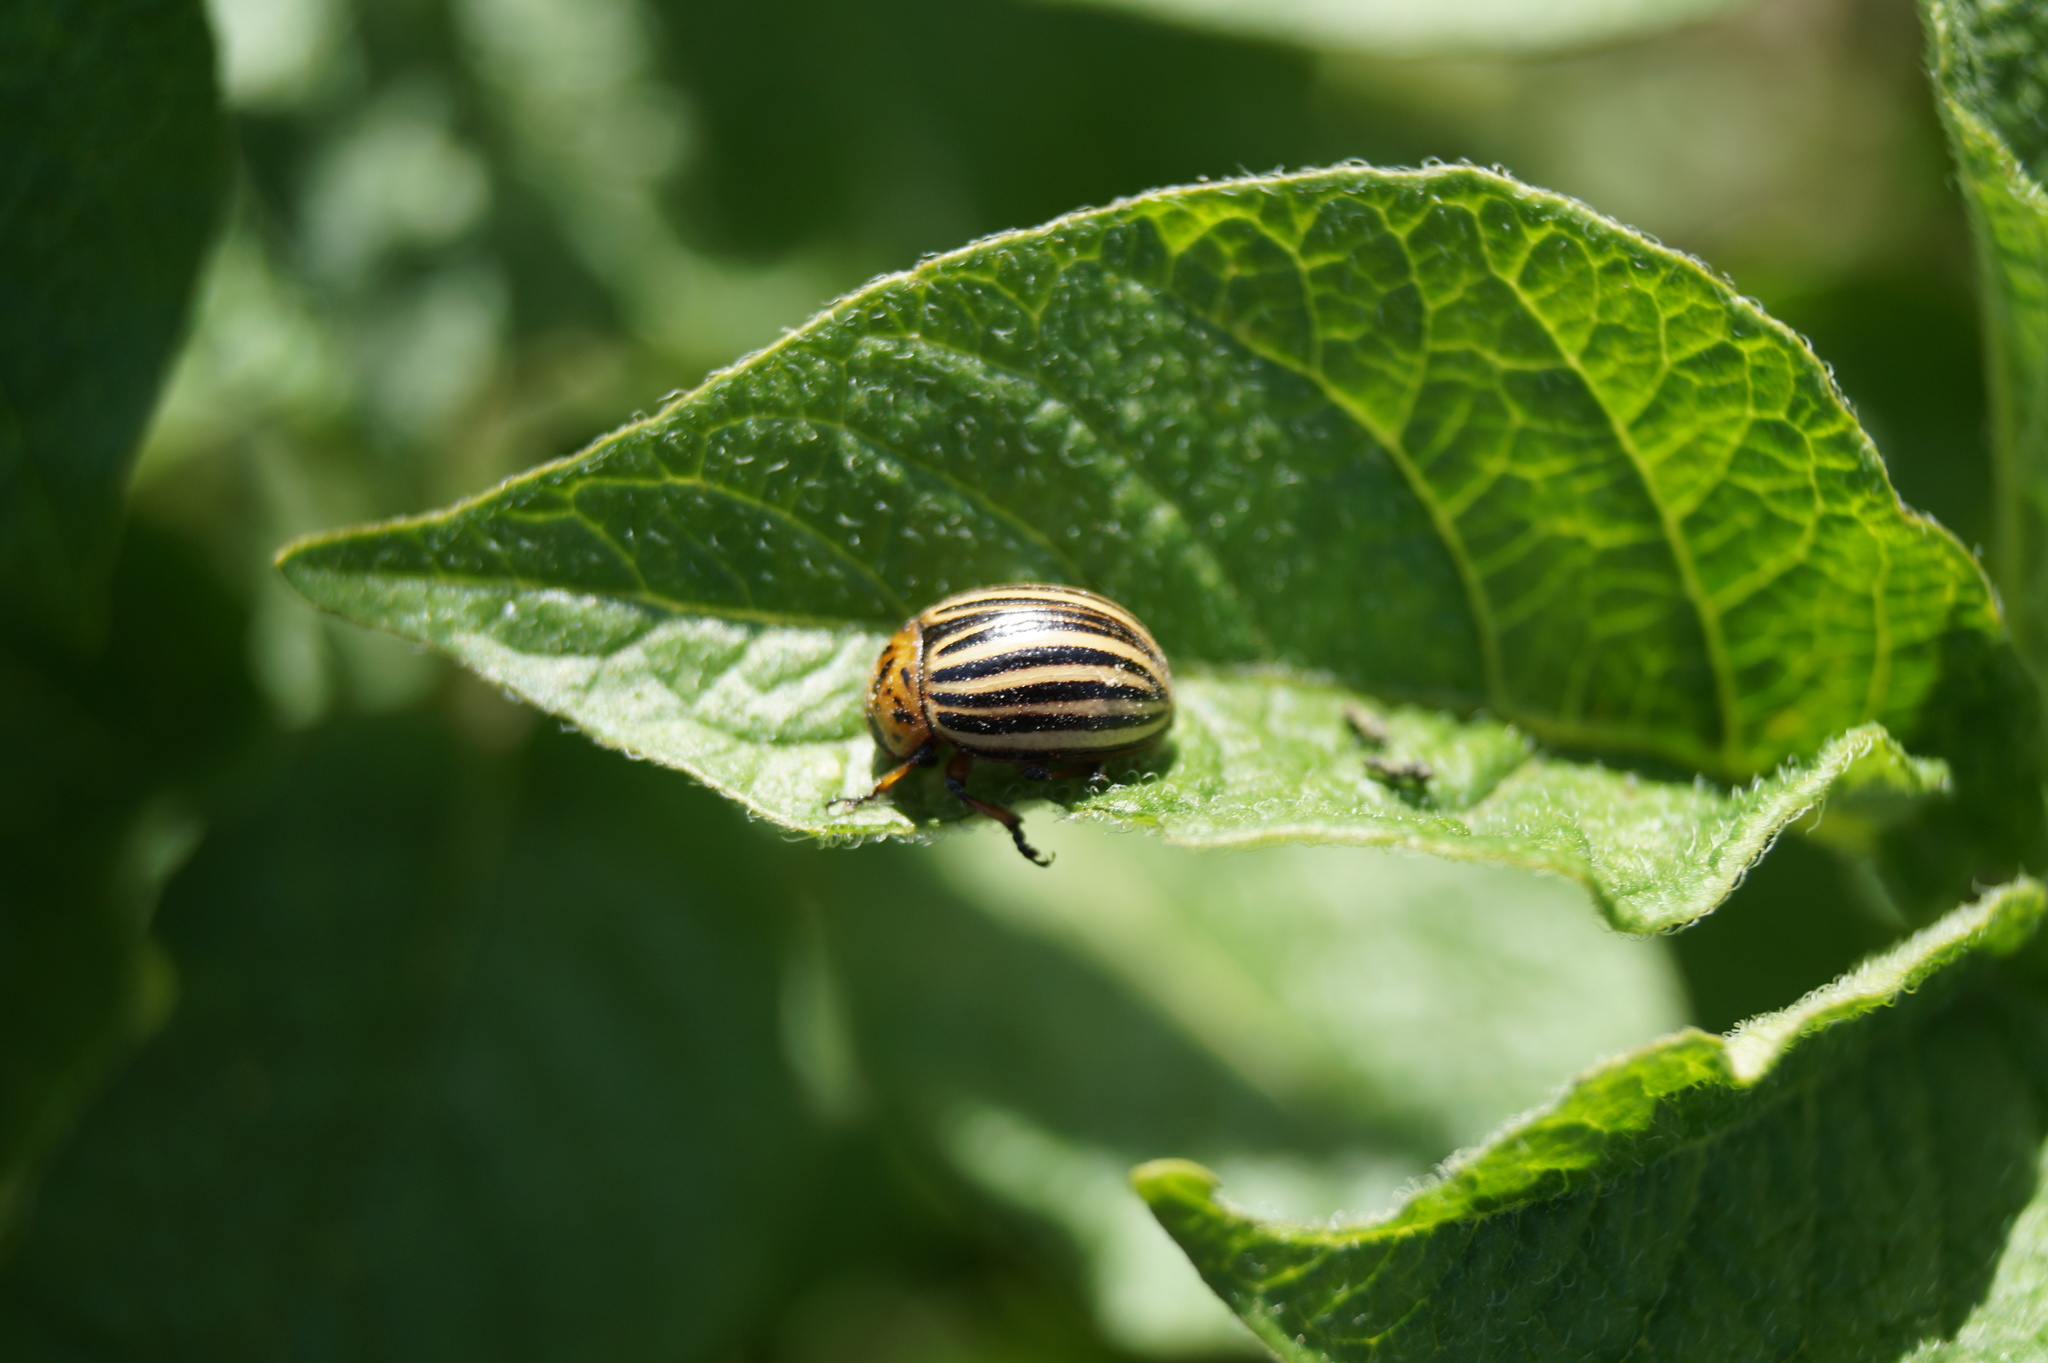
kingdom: Animalia
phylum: Arthropoda
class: Insecta
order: Coleoptera
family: Chrysomelidae
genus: Leptinotarsa
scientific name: Leptinotarsa decemlineata
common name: Colorado potato beetle
